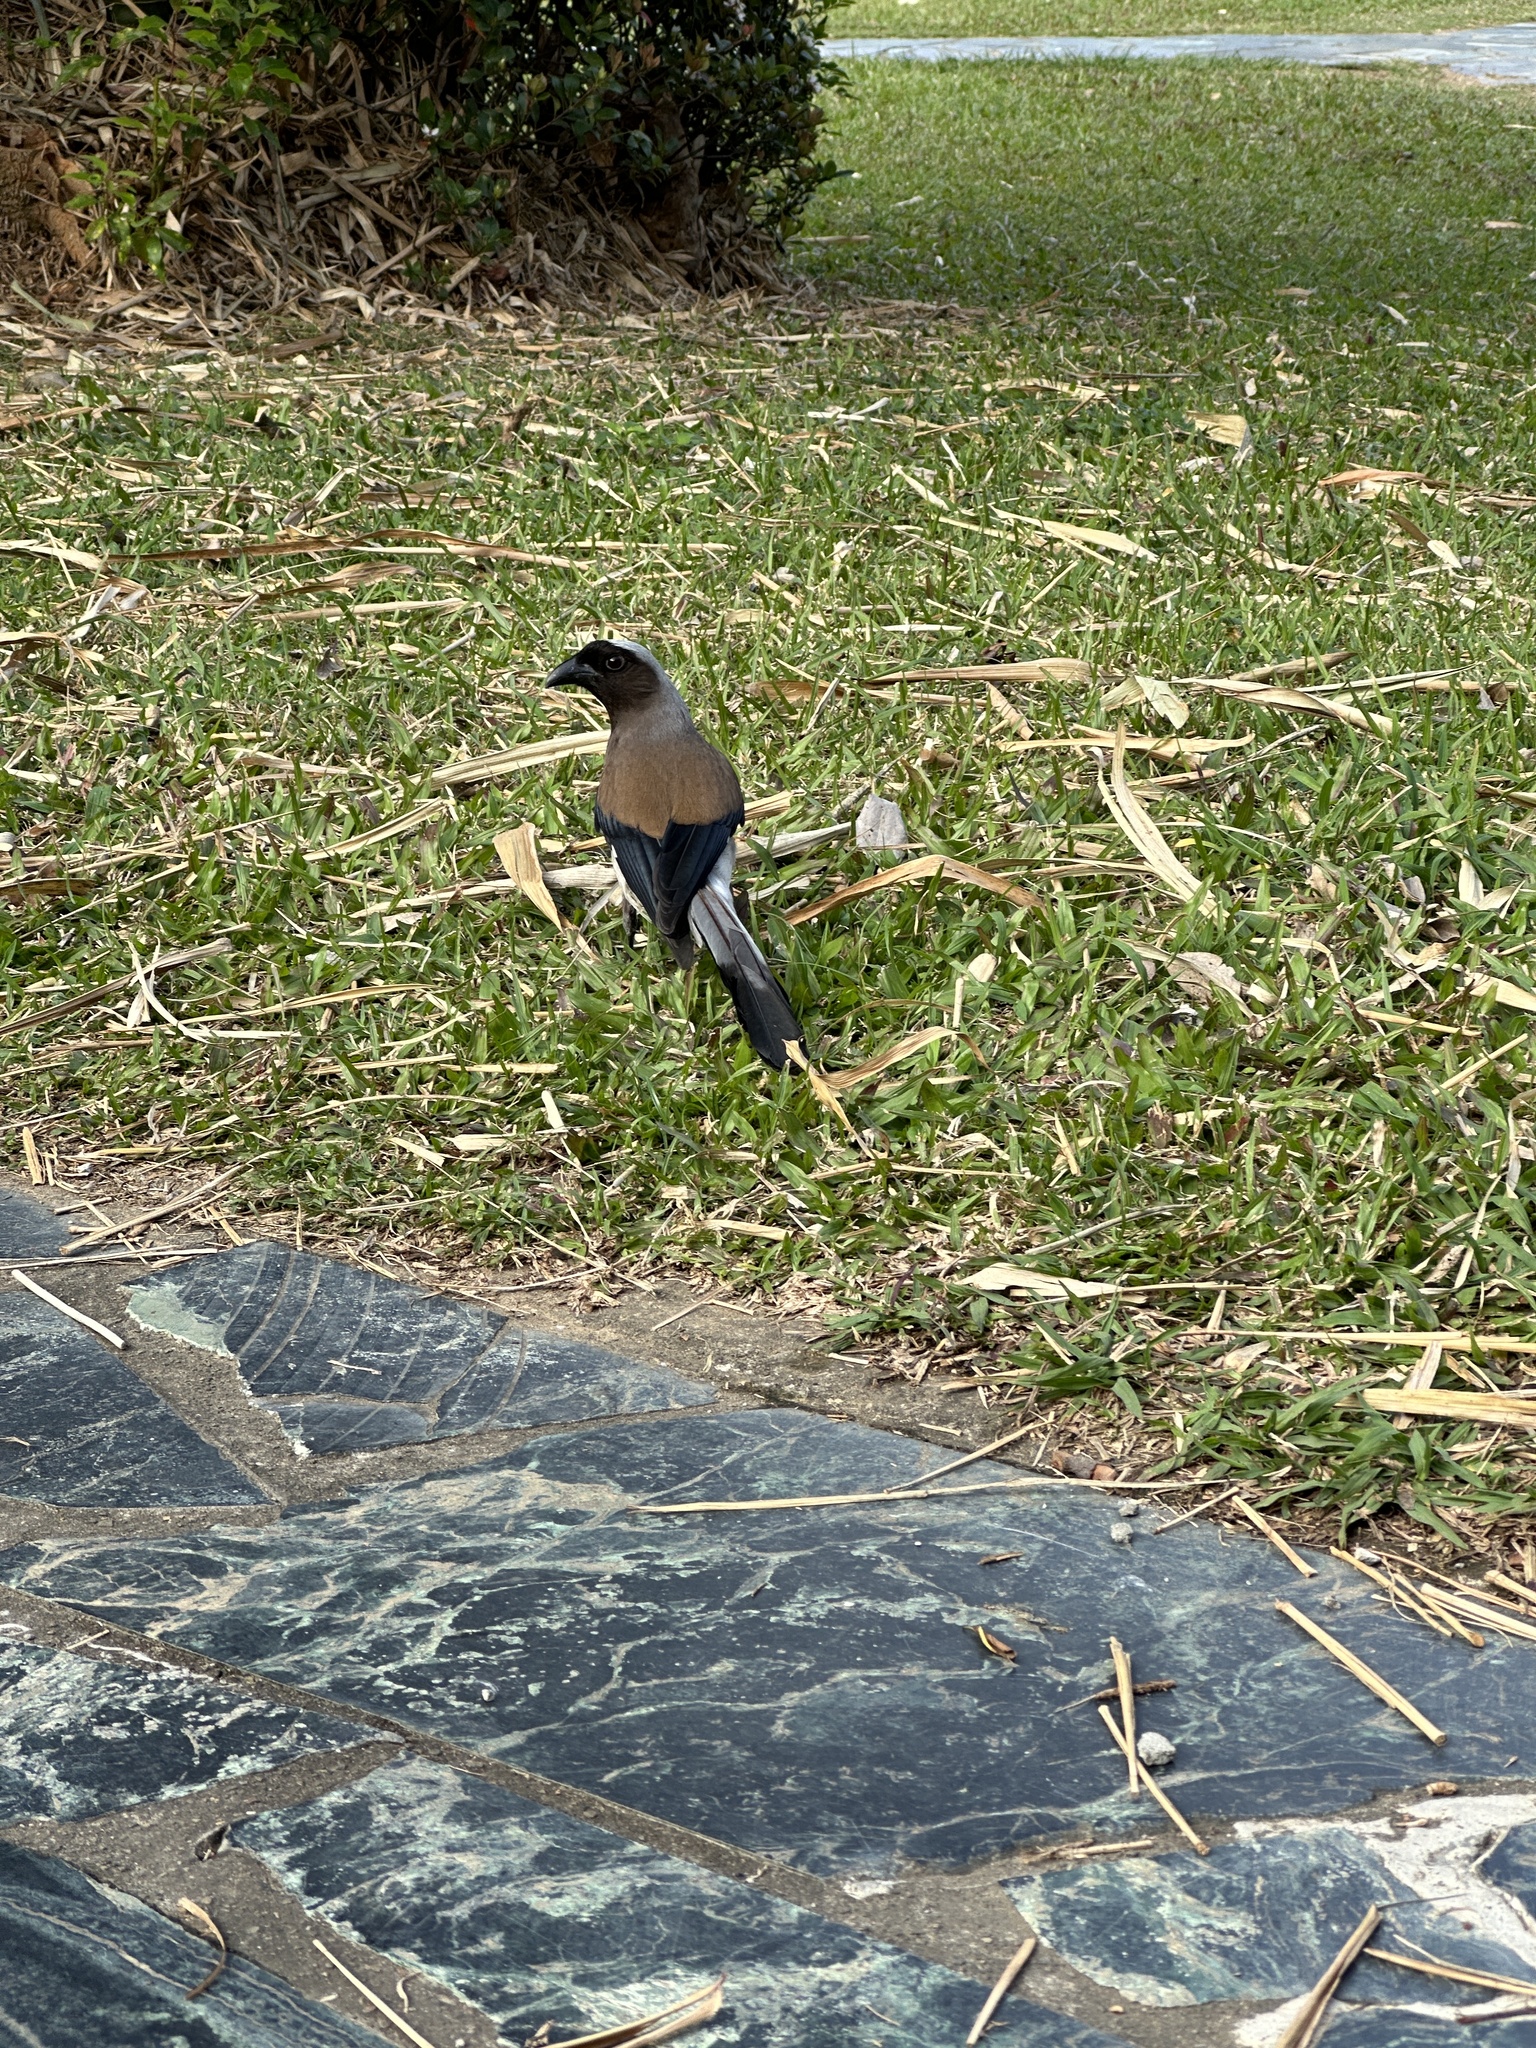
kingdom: Animalia
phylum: Chordata
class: Aves
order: Passeriformes
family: Corvidae
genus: Dendrocitta
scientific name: Dendrocitta formosae
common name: Grey treepie
